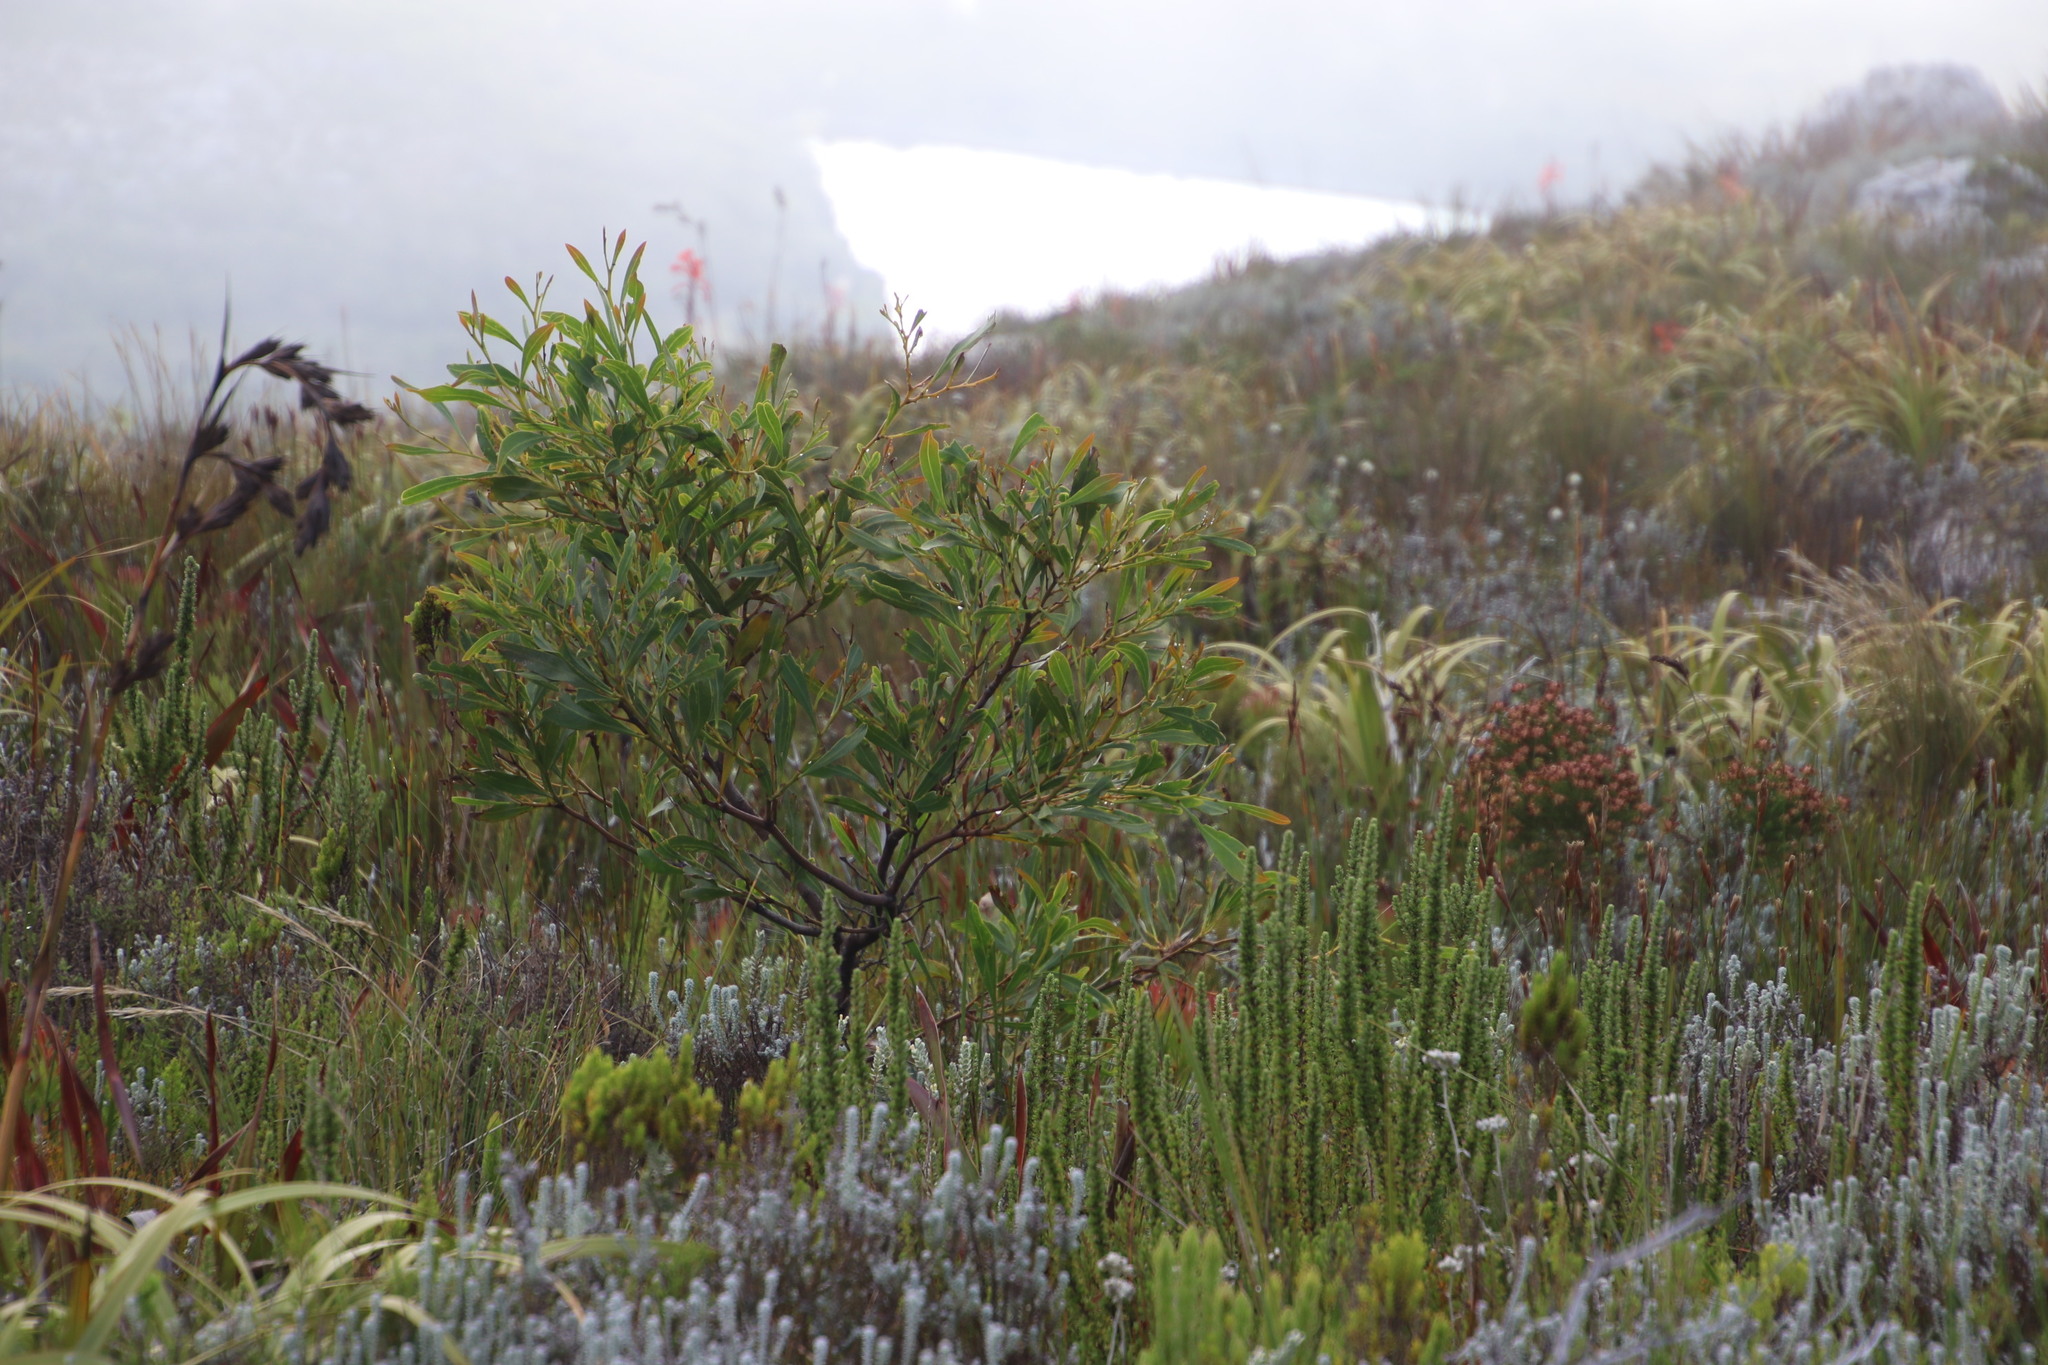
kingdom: Plantae
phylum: Tracheophyta
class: Magnoliopsida
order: Fabales
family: Fabaceae
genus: Acacia
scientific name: Acacia saligna
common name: Orange wattle
